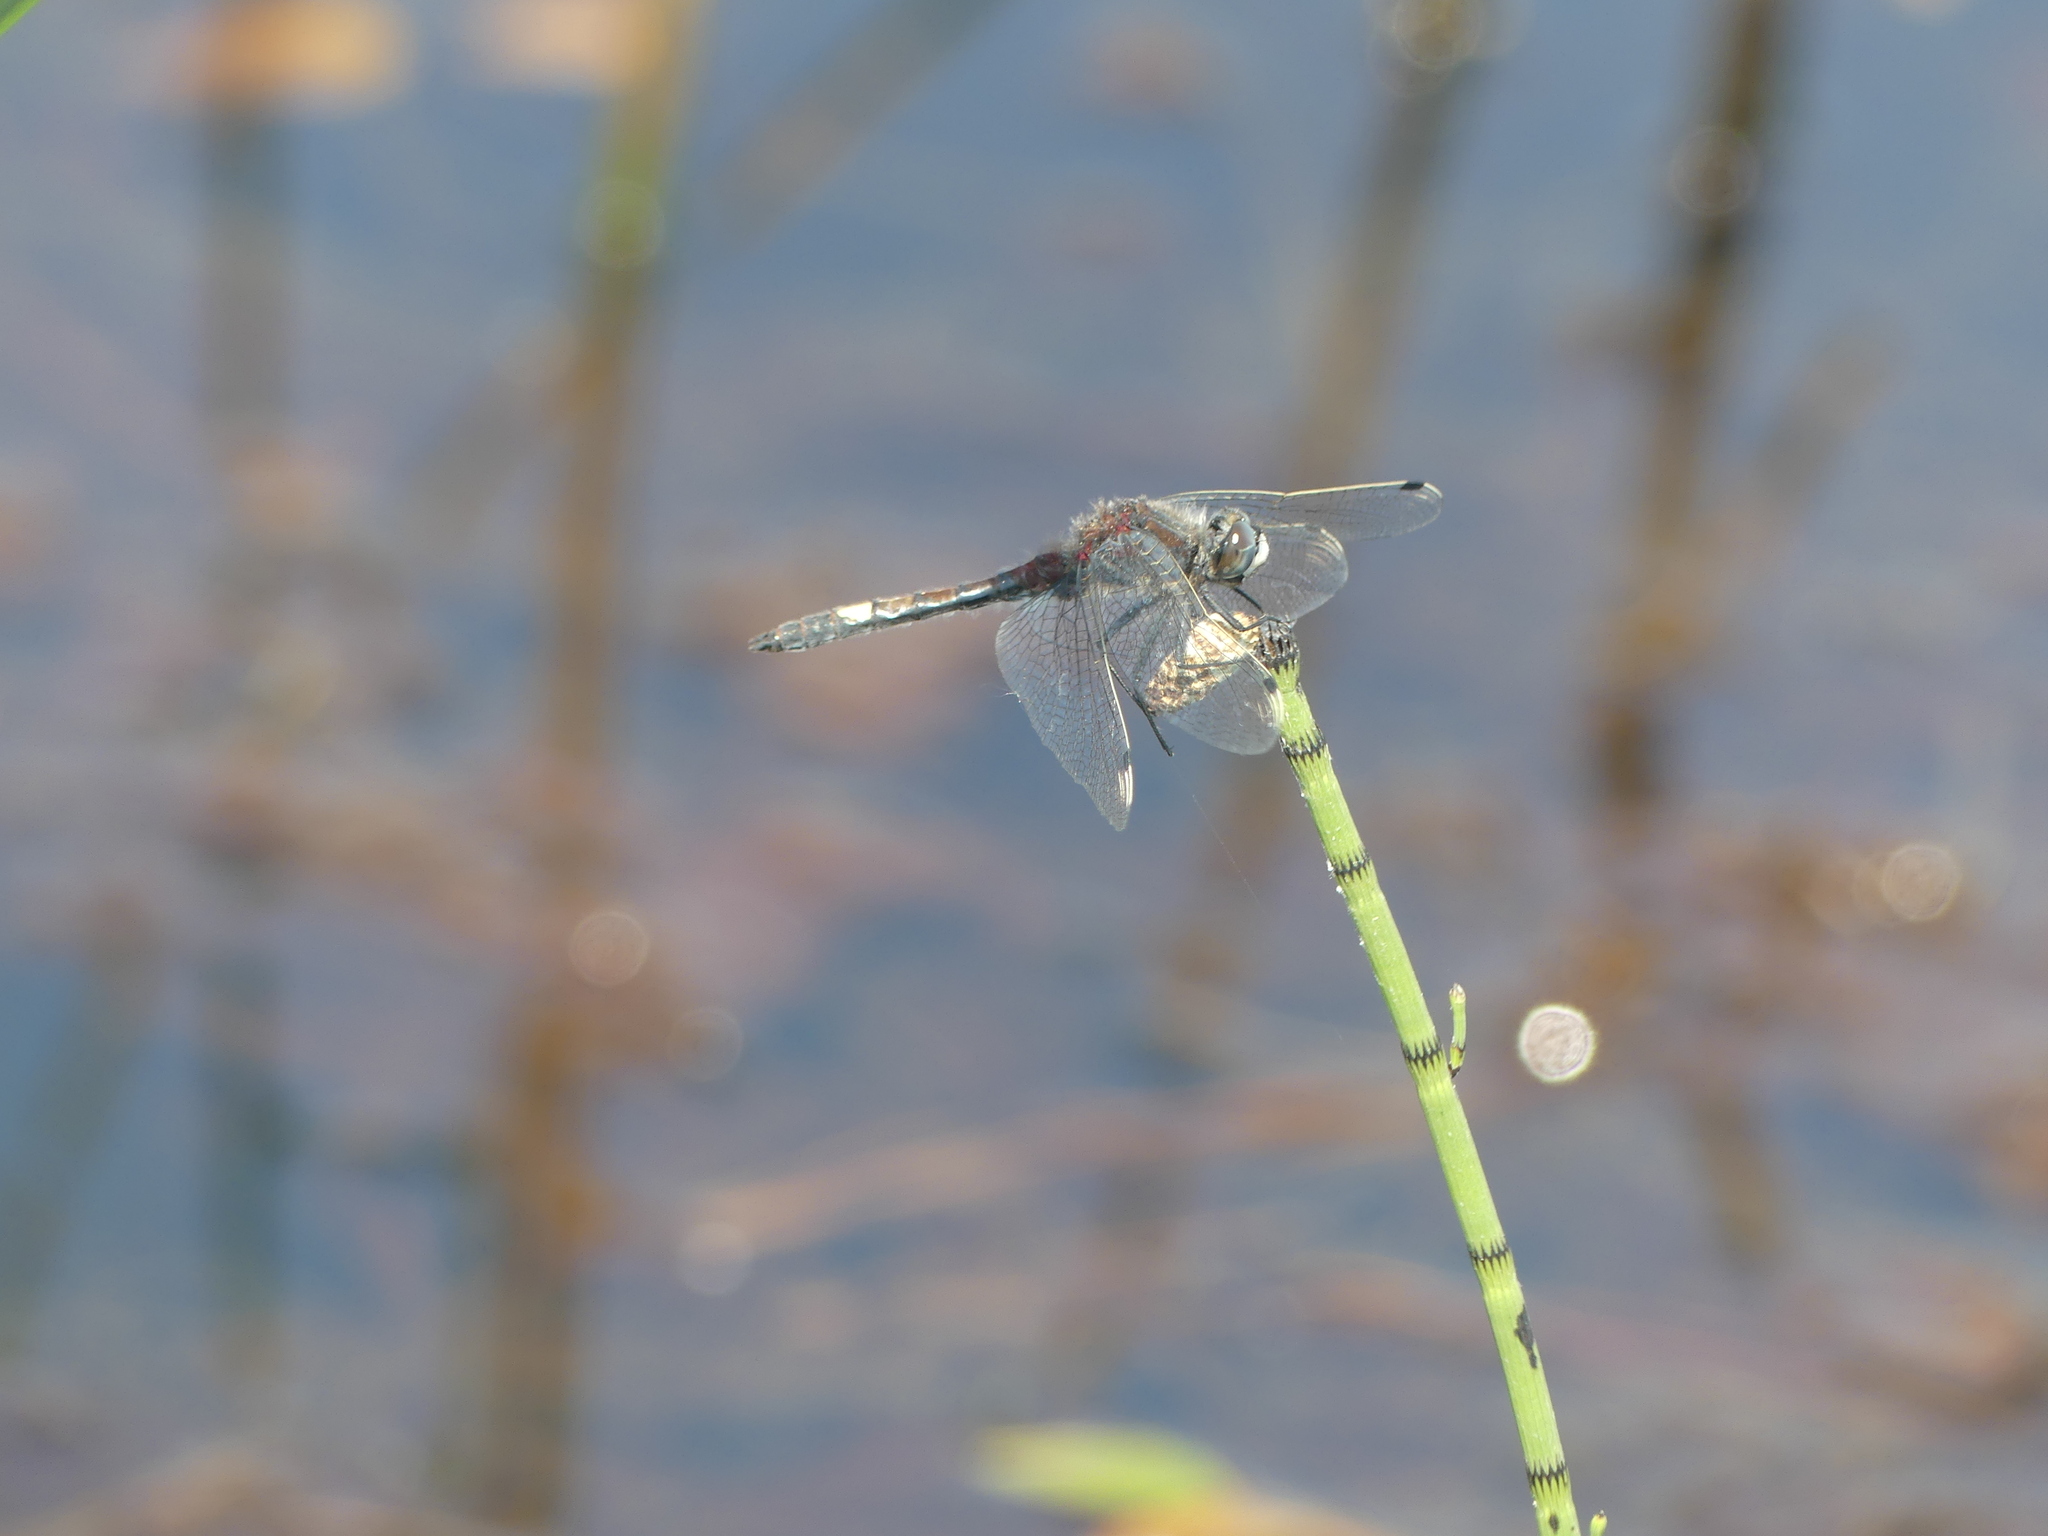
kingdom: Animalia
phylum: Arthropoda
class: Insecta
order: Odonata
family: Libellulidae
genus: Leucorrhinia
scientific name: Leucorrhinia pectoralis
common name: Yellow-spotted whiteface
